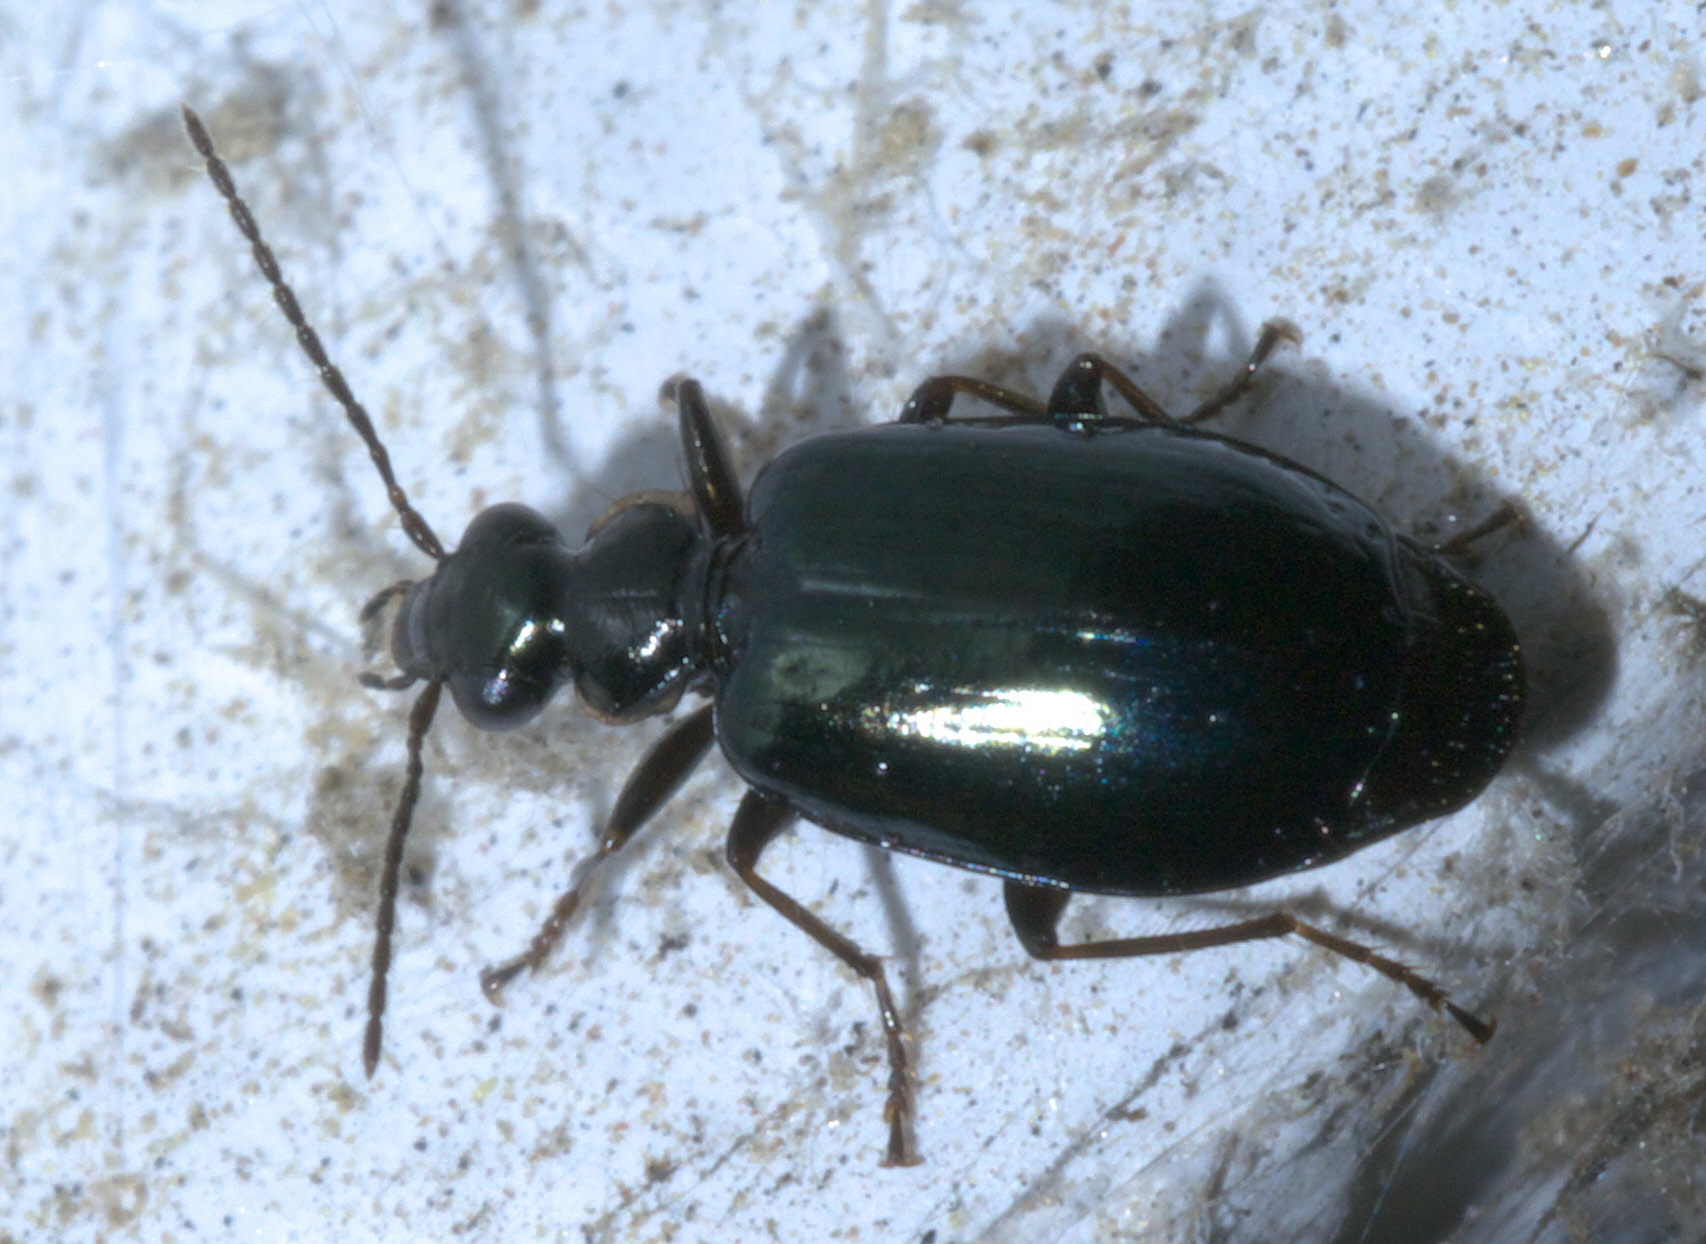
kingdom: Animalia
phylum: Arthropoda
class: Insecta
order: Coleoptera
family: Carabidae
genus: Lebia
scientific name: Lebia marginicollis
